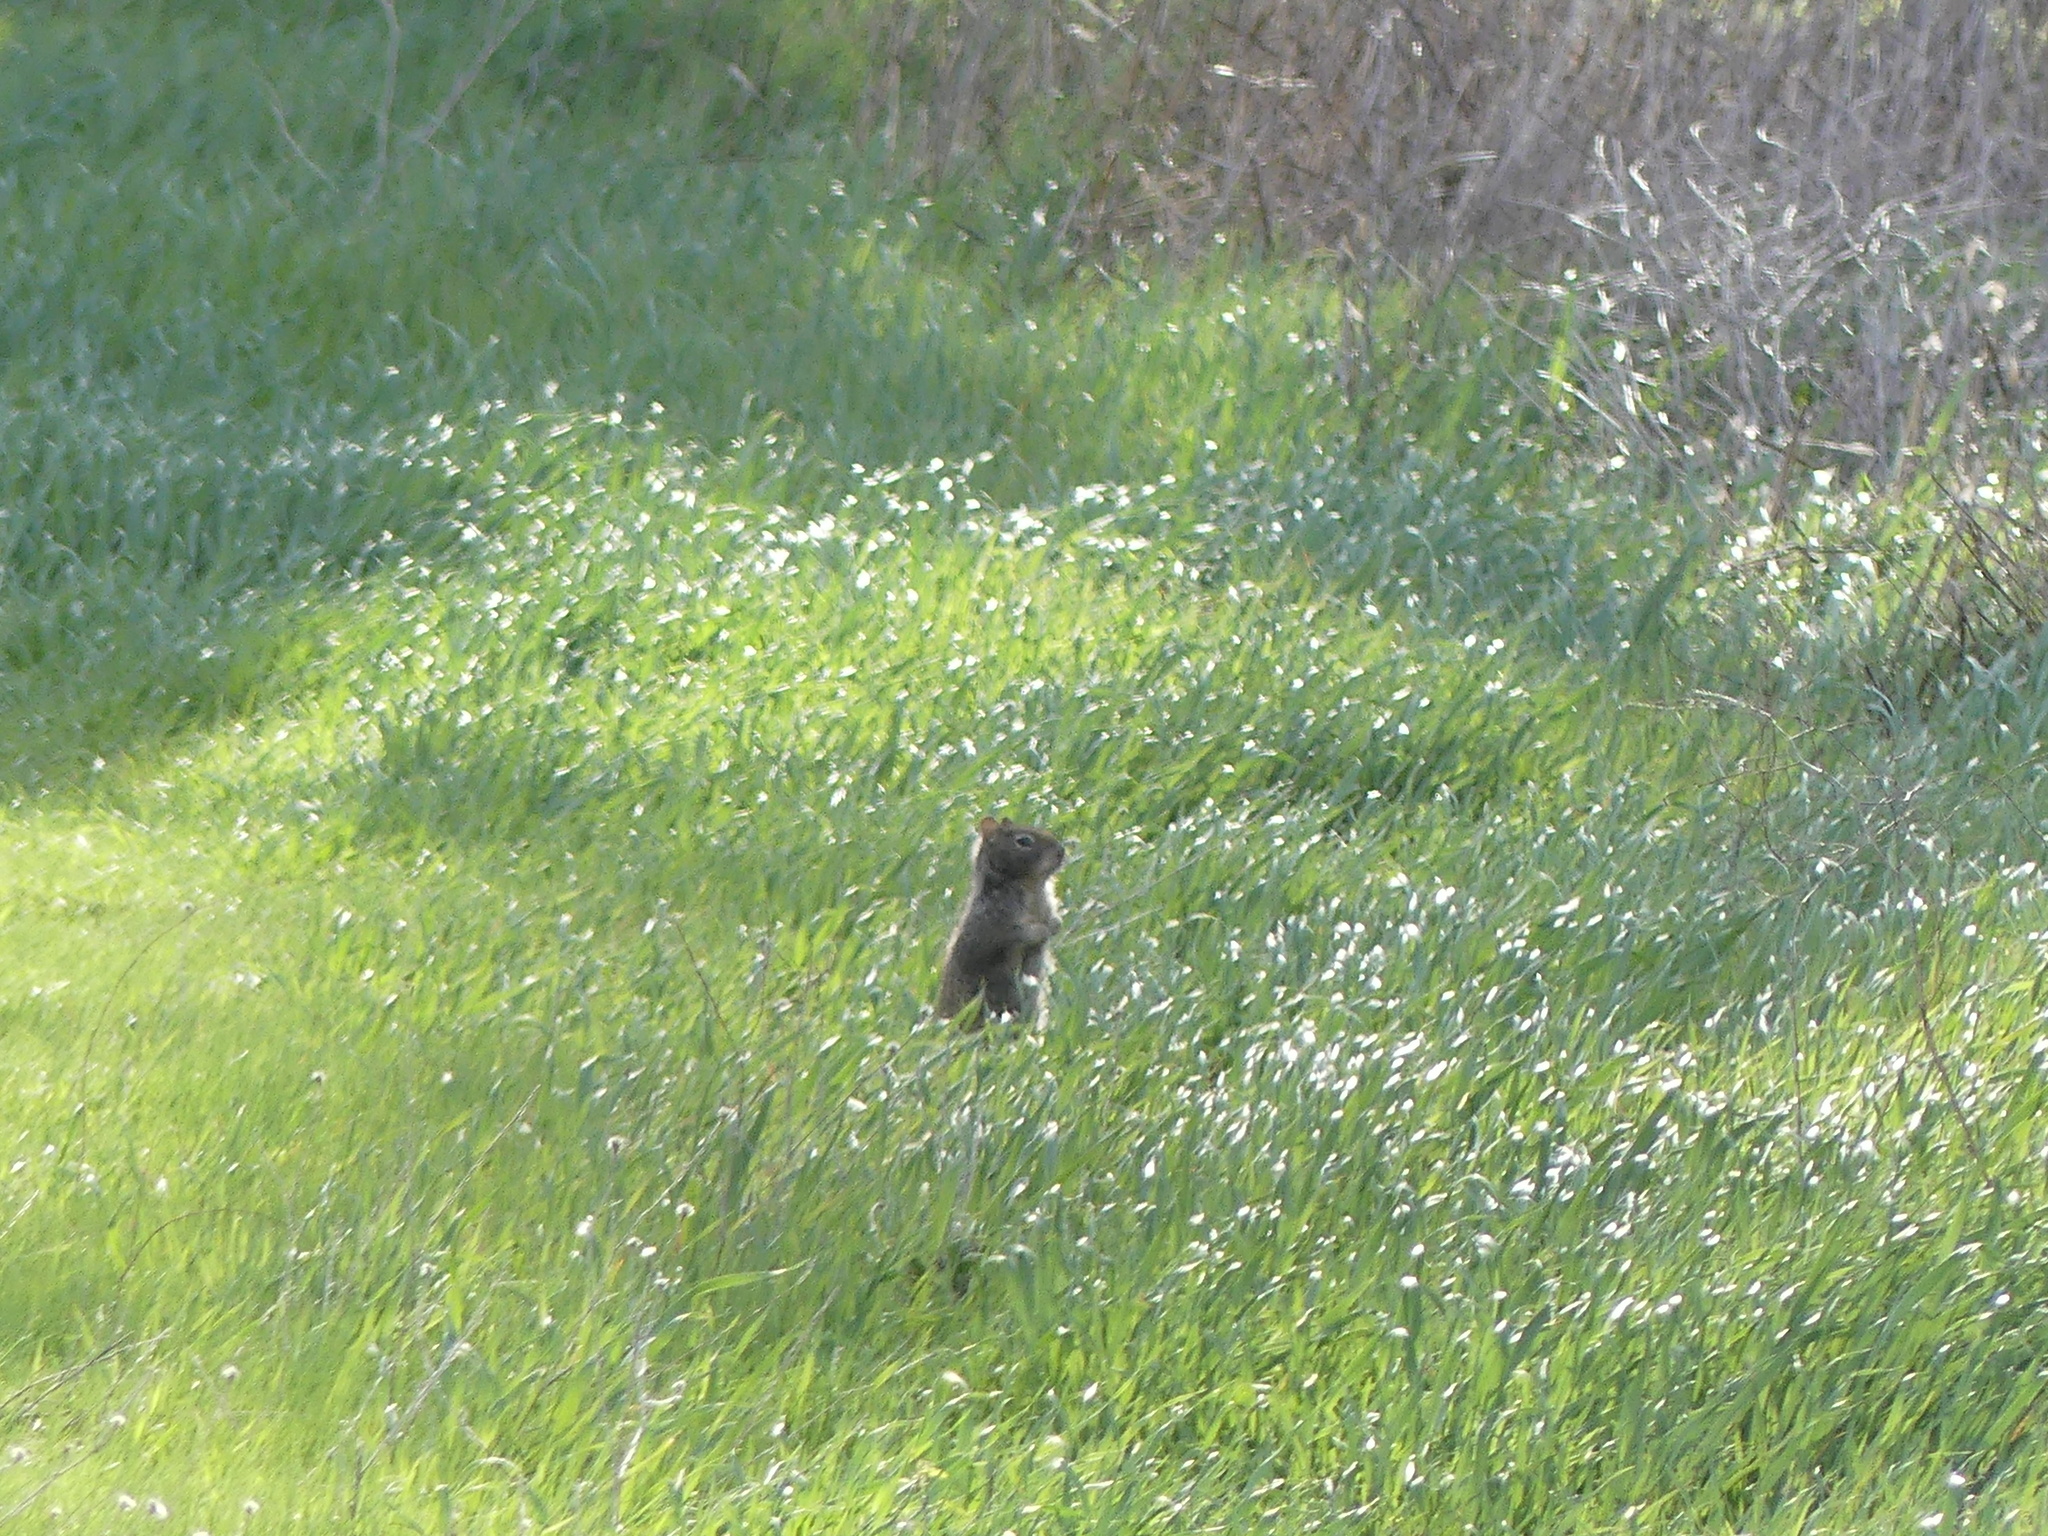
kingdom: Animalia
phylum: Chordata
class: Mammalia
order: Rodentia
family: Sciuridae
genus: Otospermophilus
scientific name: Otospermophilus beecheyi
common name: California ground squirrel
